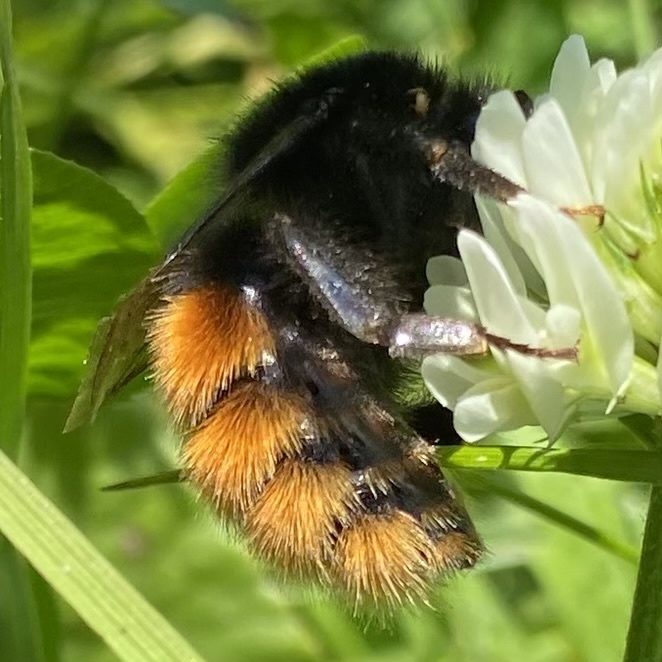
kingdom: Animalia
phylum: Arthropoda
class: Insecta
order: Hymenoptera
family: Apidae
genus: Bombus
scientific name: Bombus alpinus
